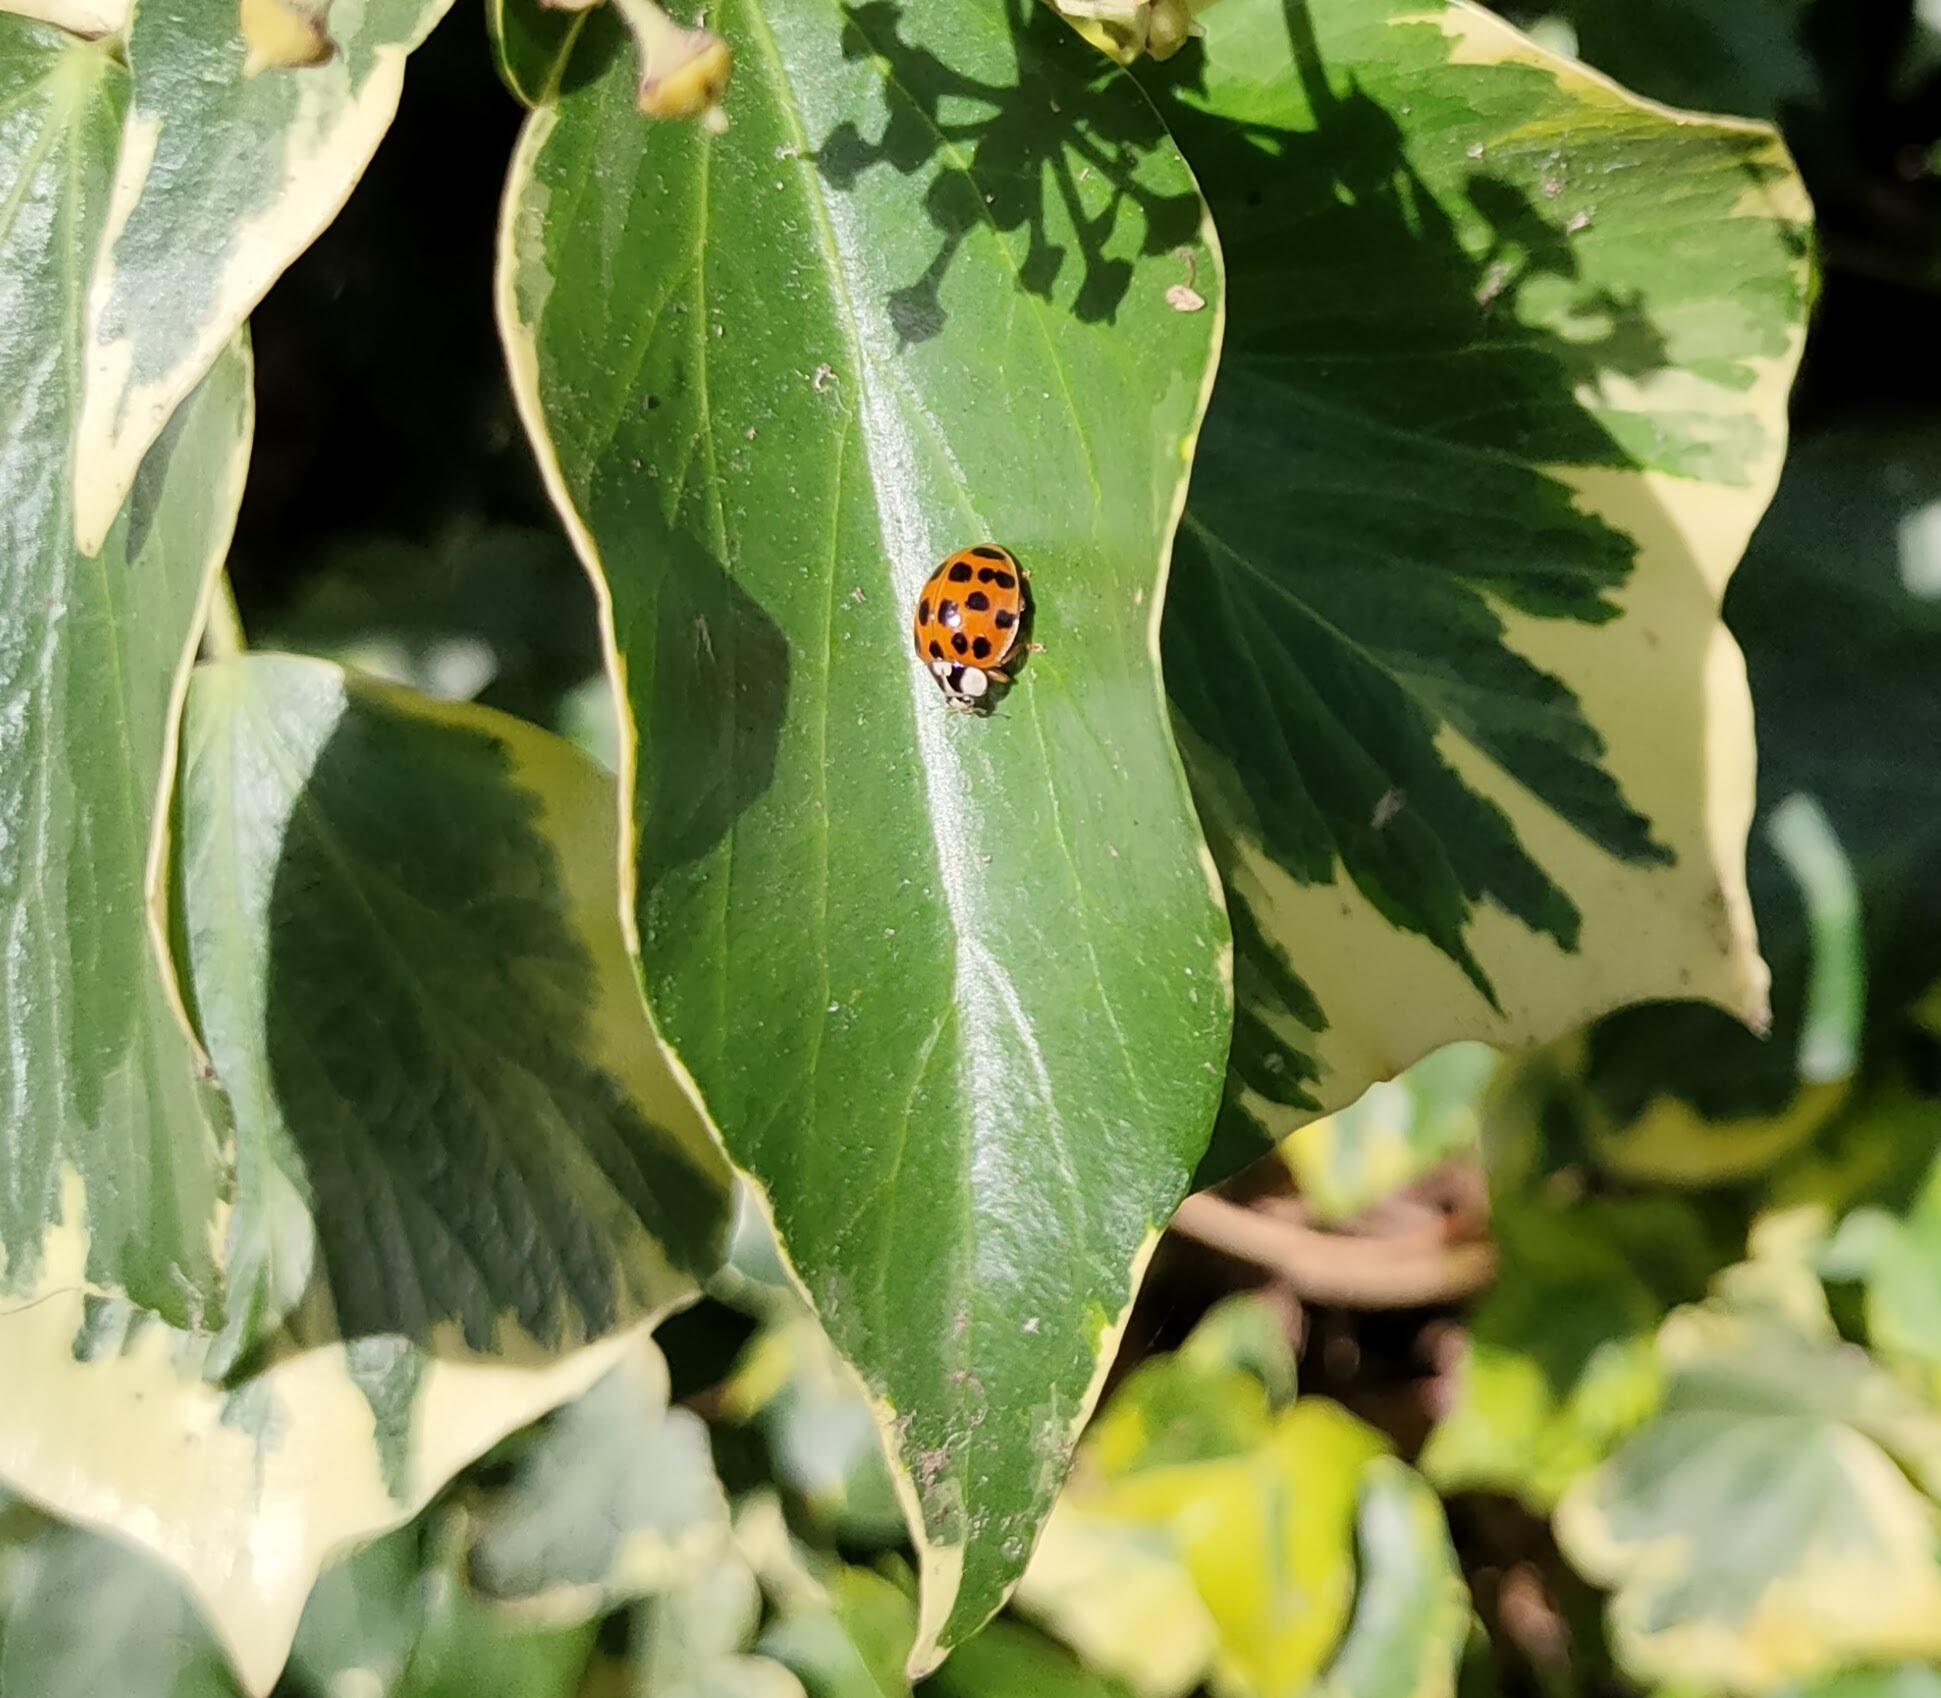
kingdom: Animalia
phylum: Arthropoda
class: Insecta
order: Coleoptera
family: Coccinellidae
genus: Harmonia
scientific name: Harmonia axyridis
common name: Harlequin ladybird
